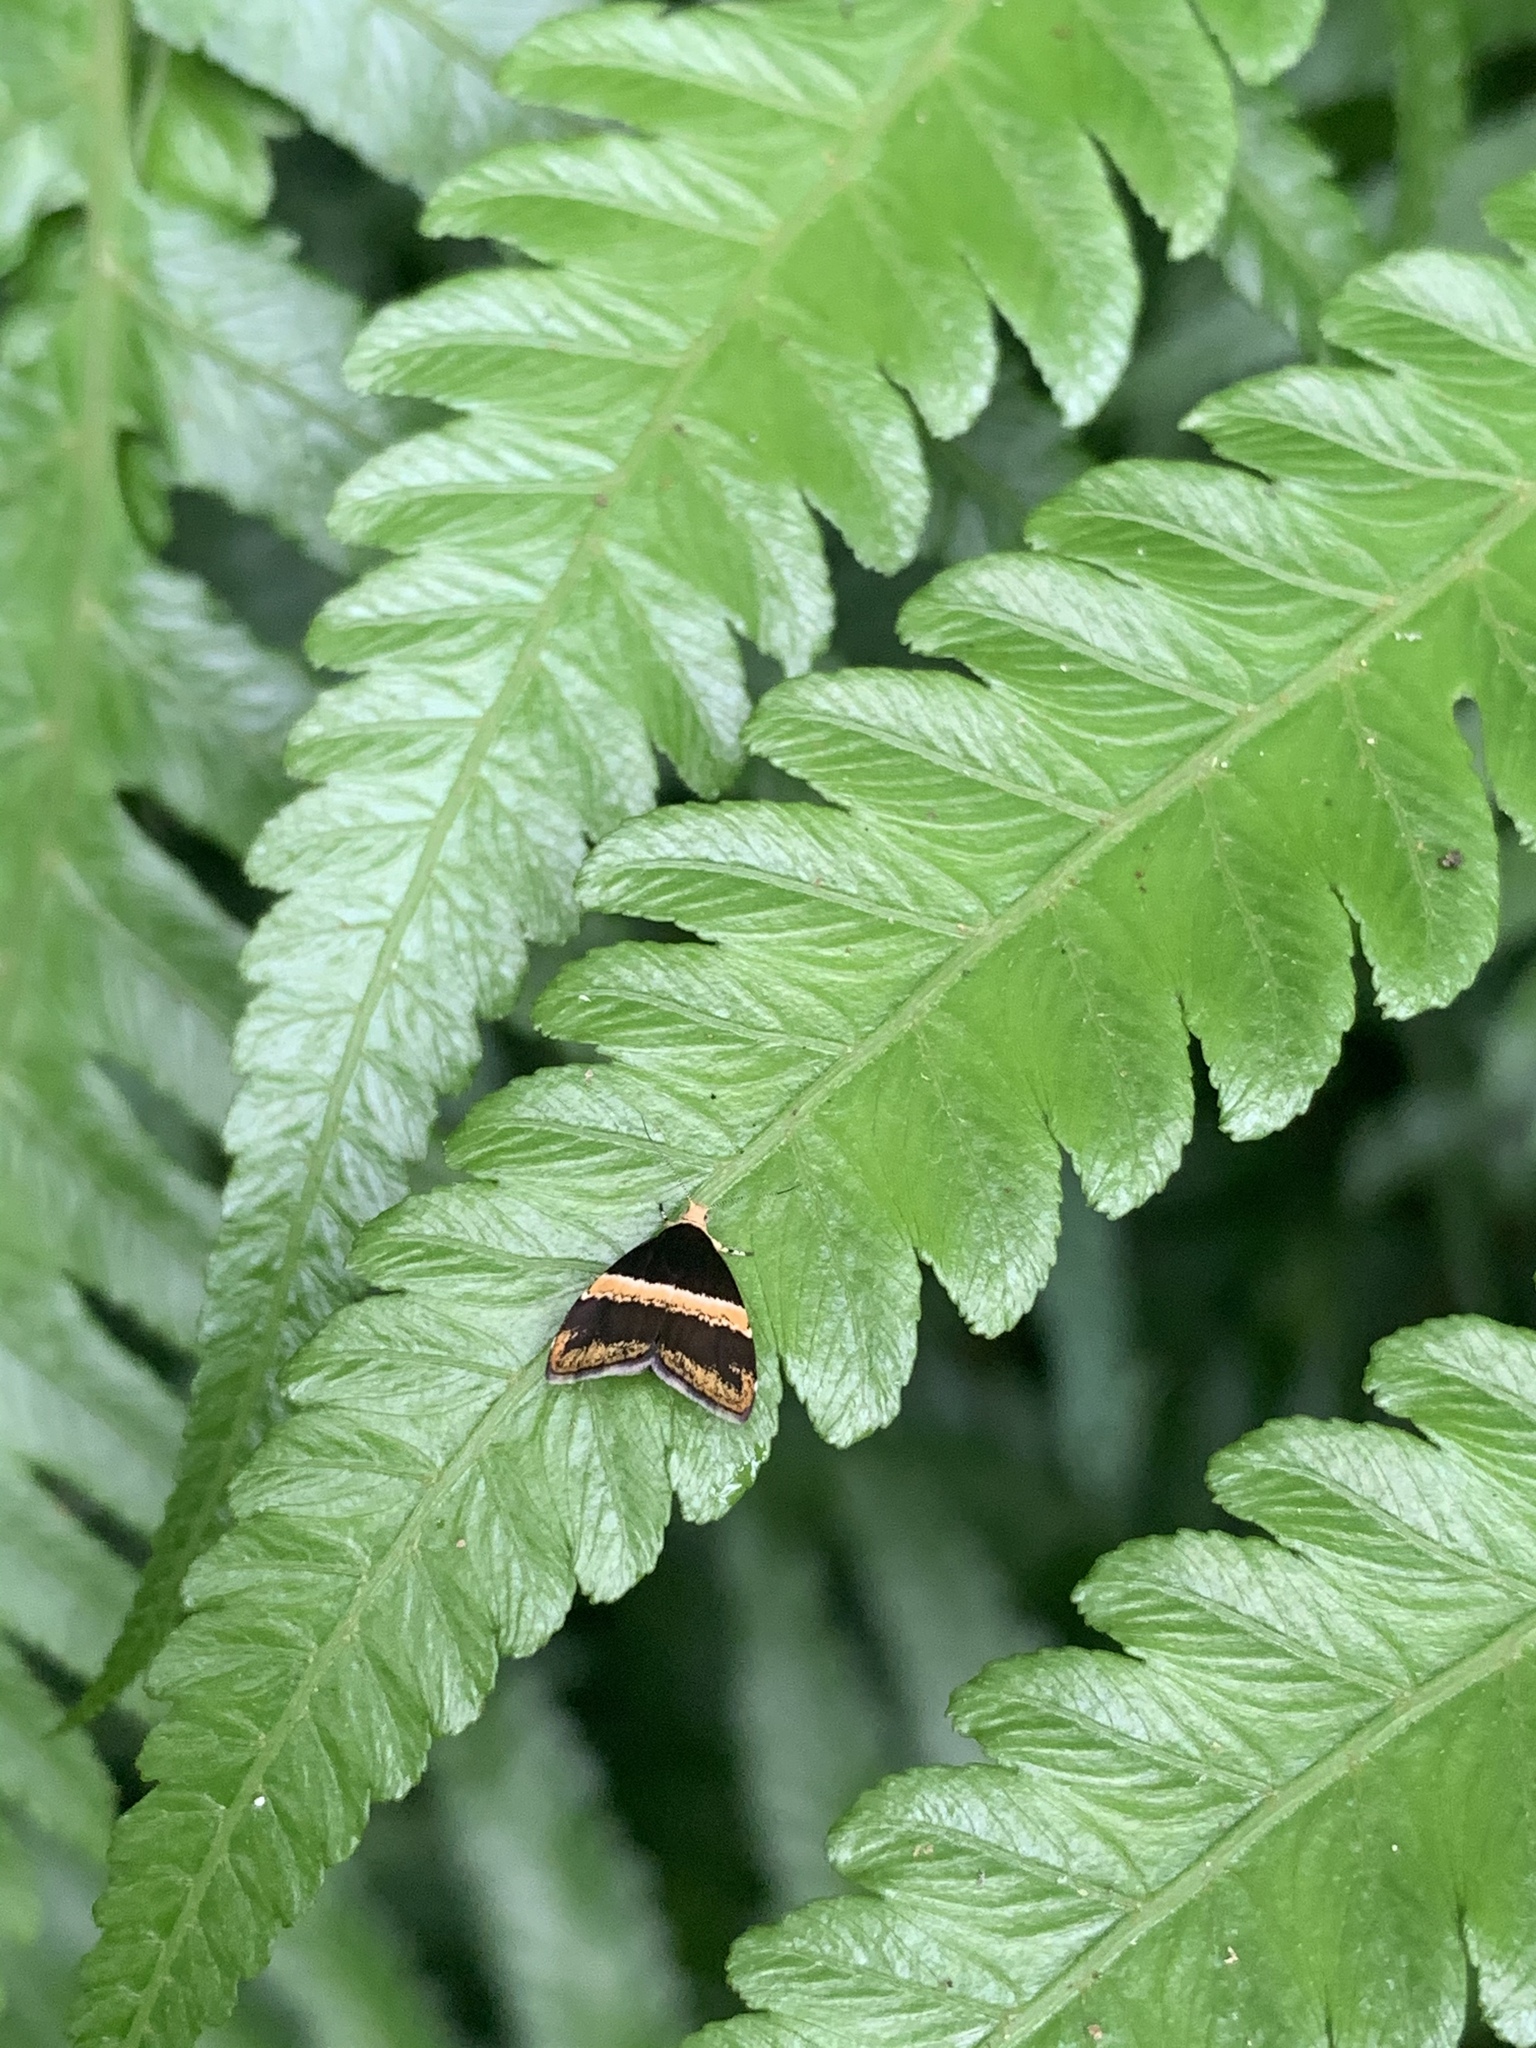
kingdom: Animalia
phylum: Arthropoda
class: Insecta
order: Lepidoptera
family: Choreutidae
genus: Choreutis
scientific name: Choreutis basalis
